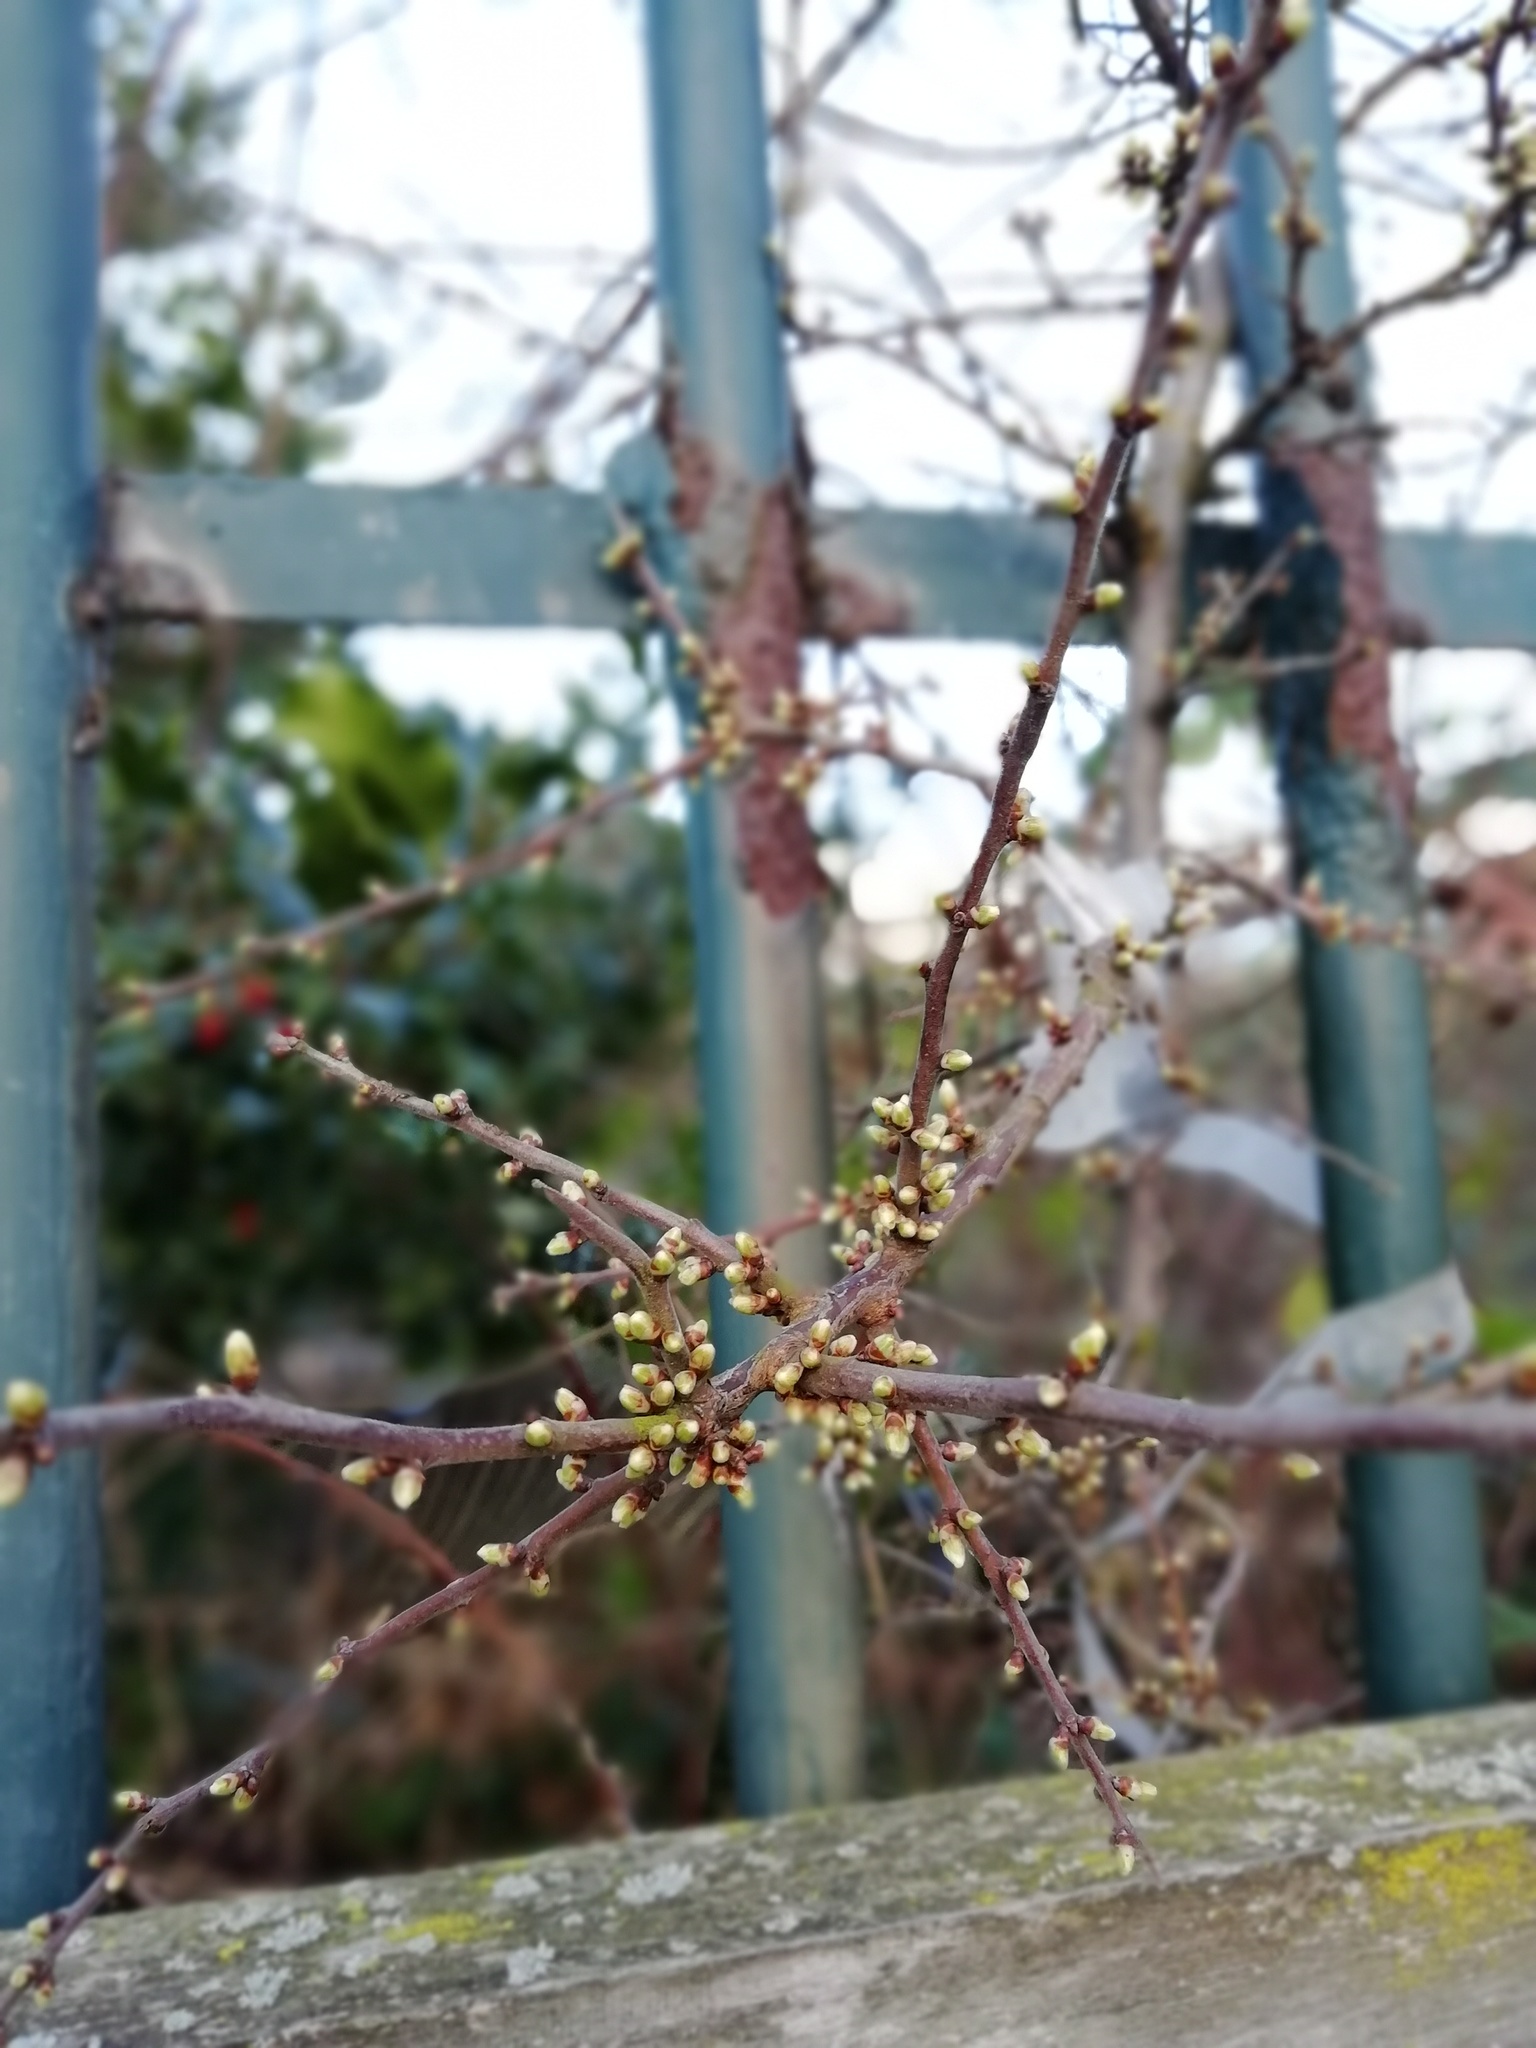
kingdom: Plantae
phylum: Tracheophyta
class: Magnoliopsida
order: Rosales
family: Rosaceae
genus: Prunus
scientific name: Prunus spinosa
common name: Blackthorn
